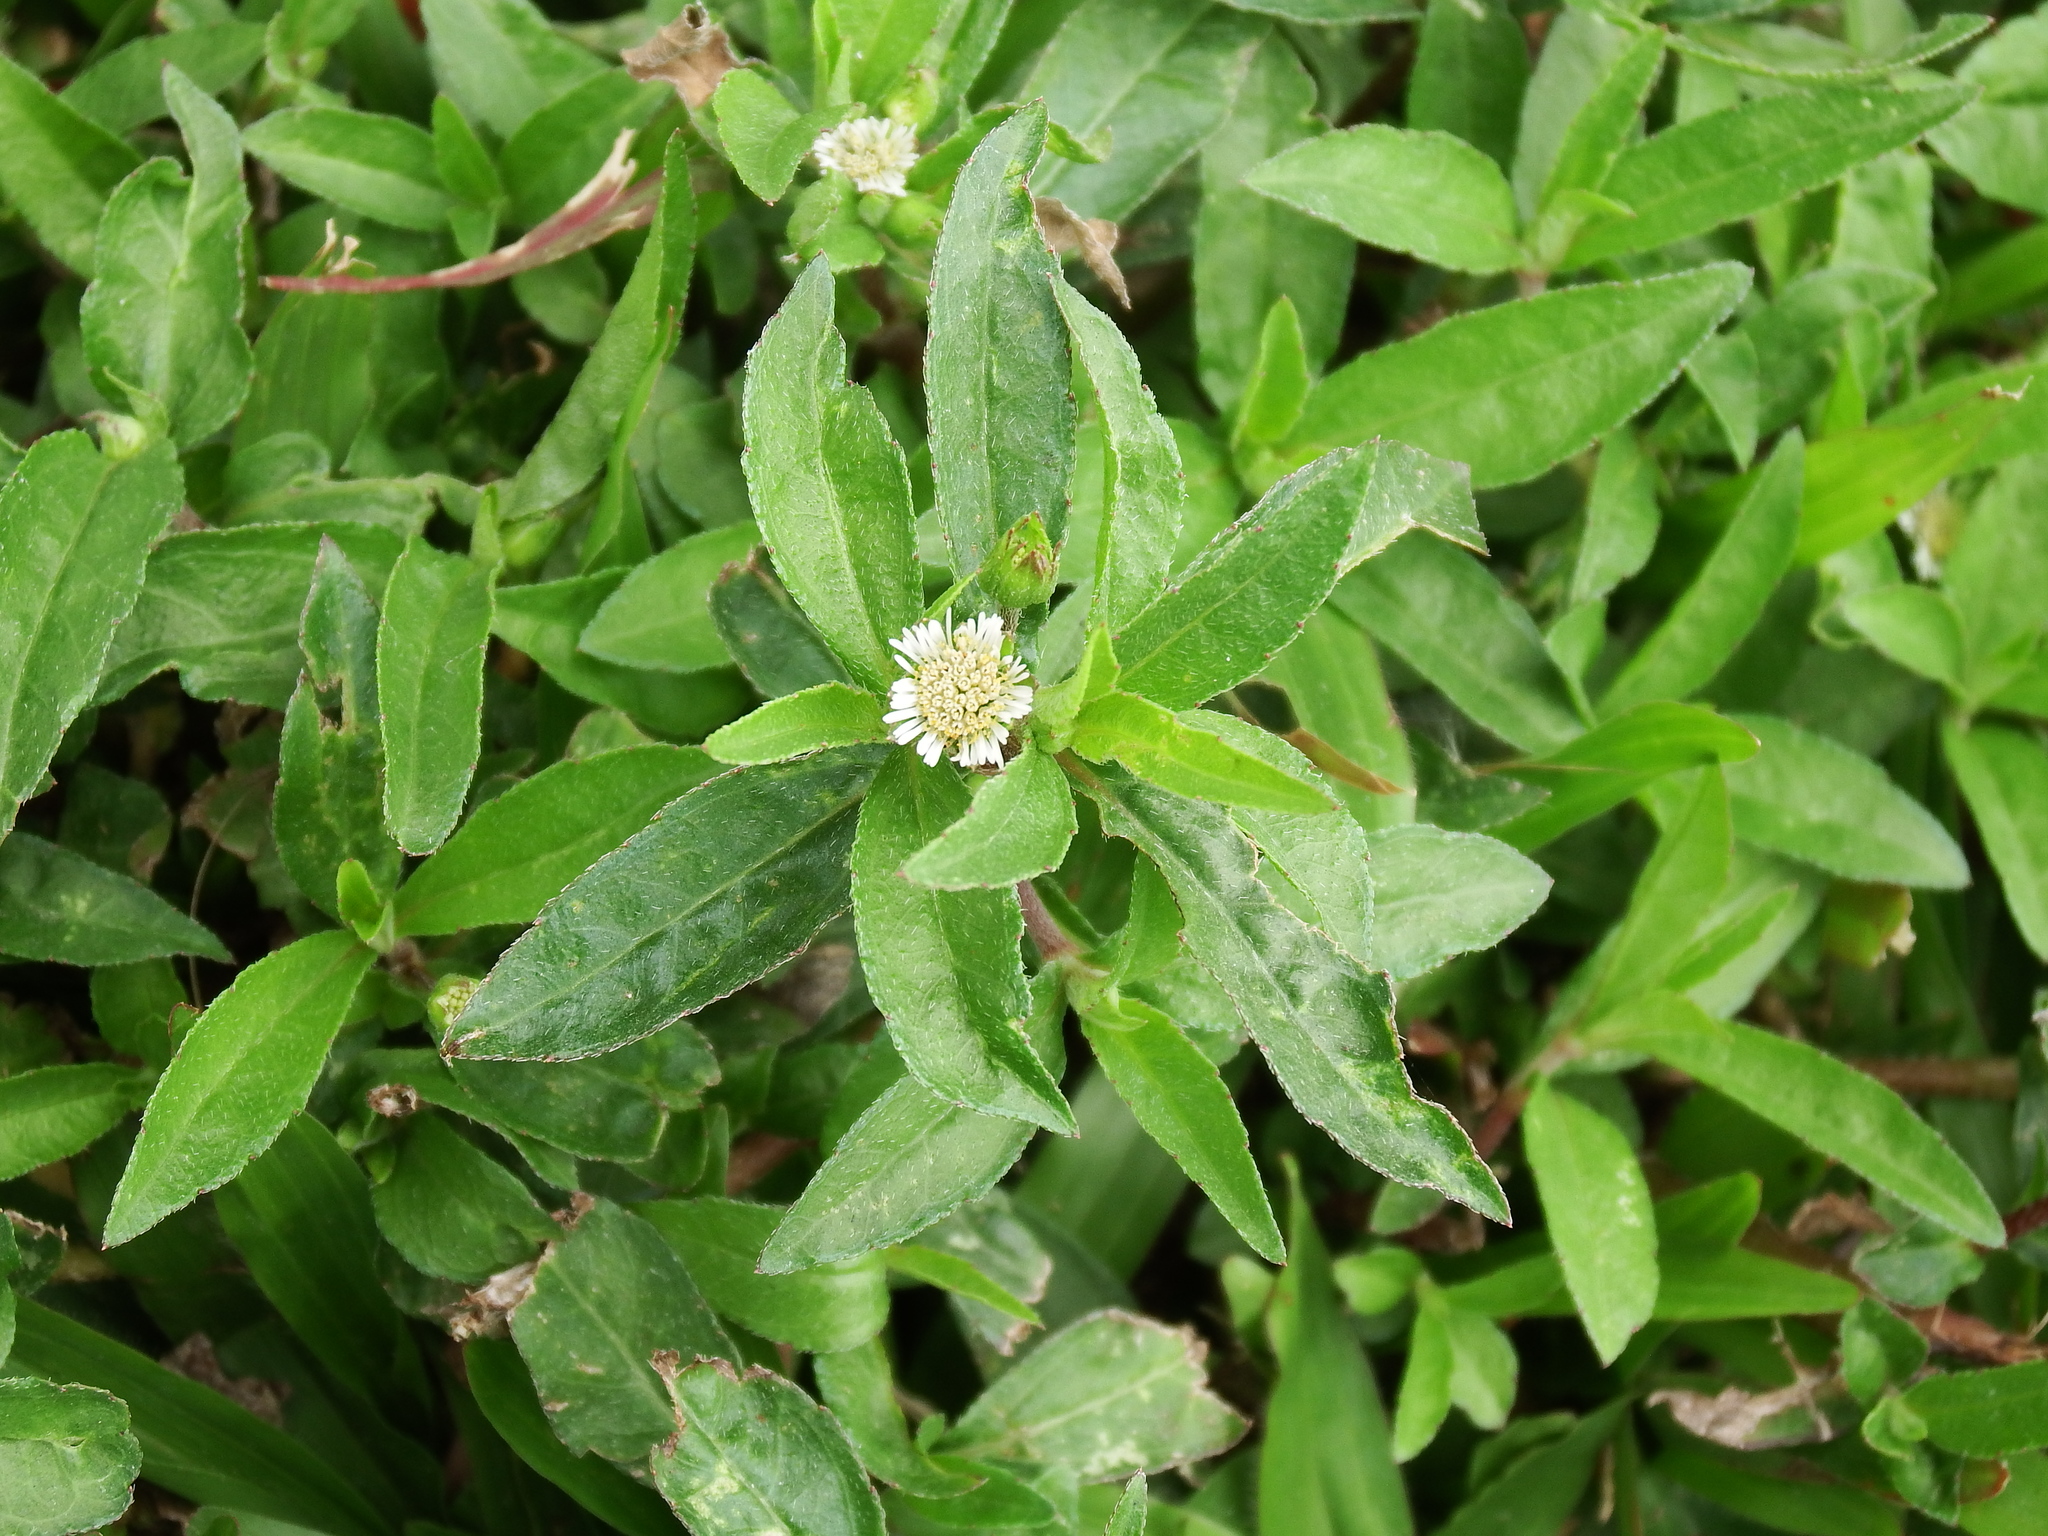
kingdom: Plantae
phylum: Tracheophyta
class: Magnoliopsida
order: Asterales
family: Asteraceae
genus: Eclipta
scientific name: Eclipta prostrata
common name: False daisy
